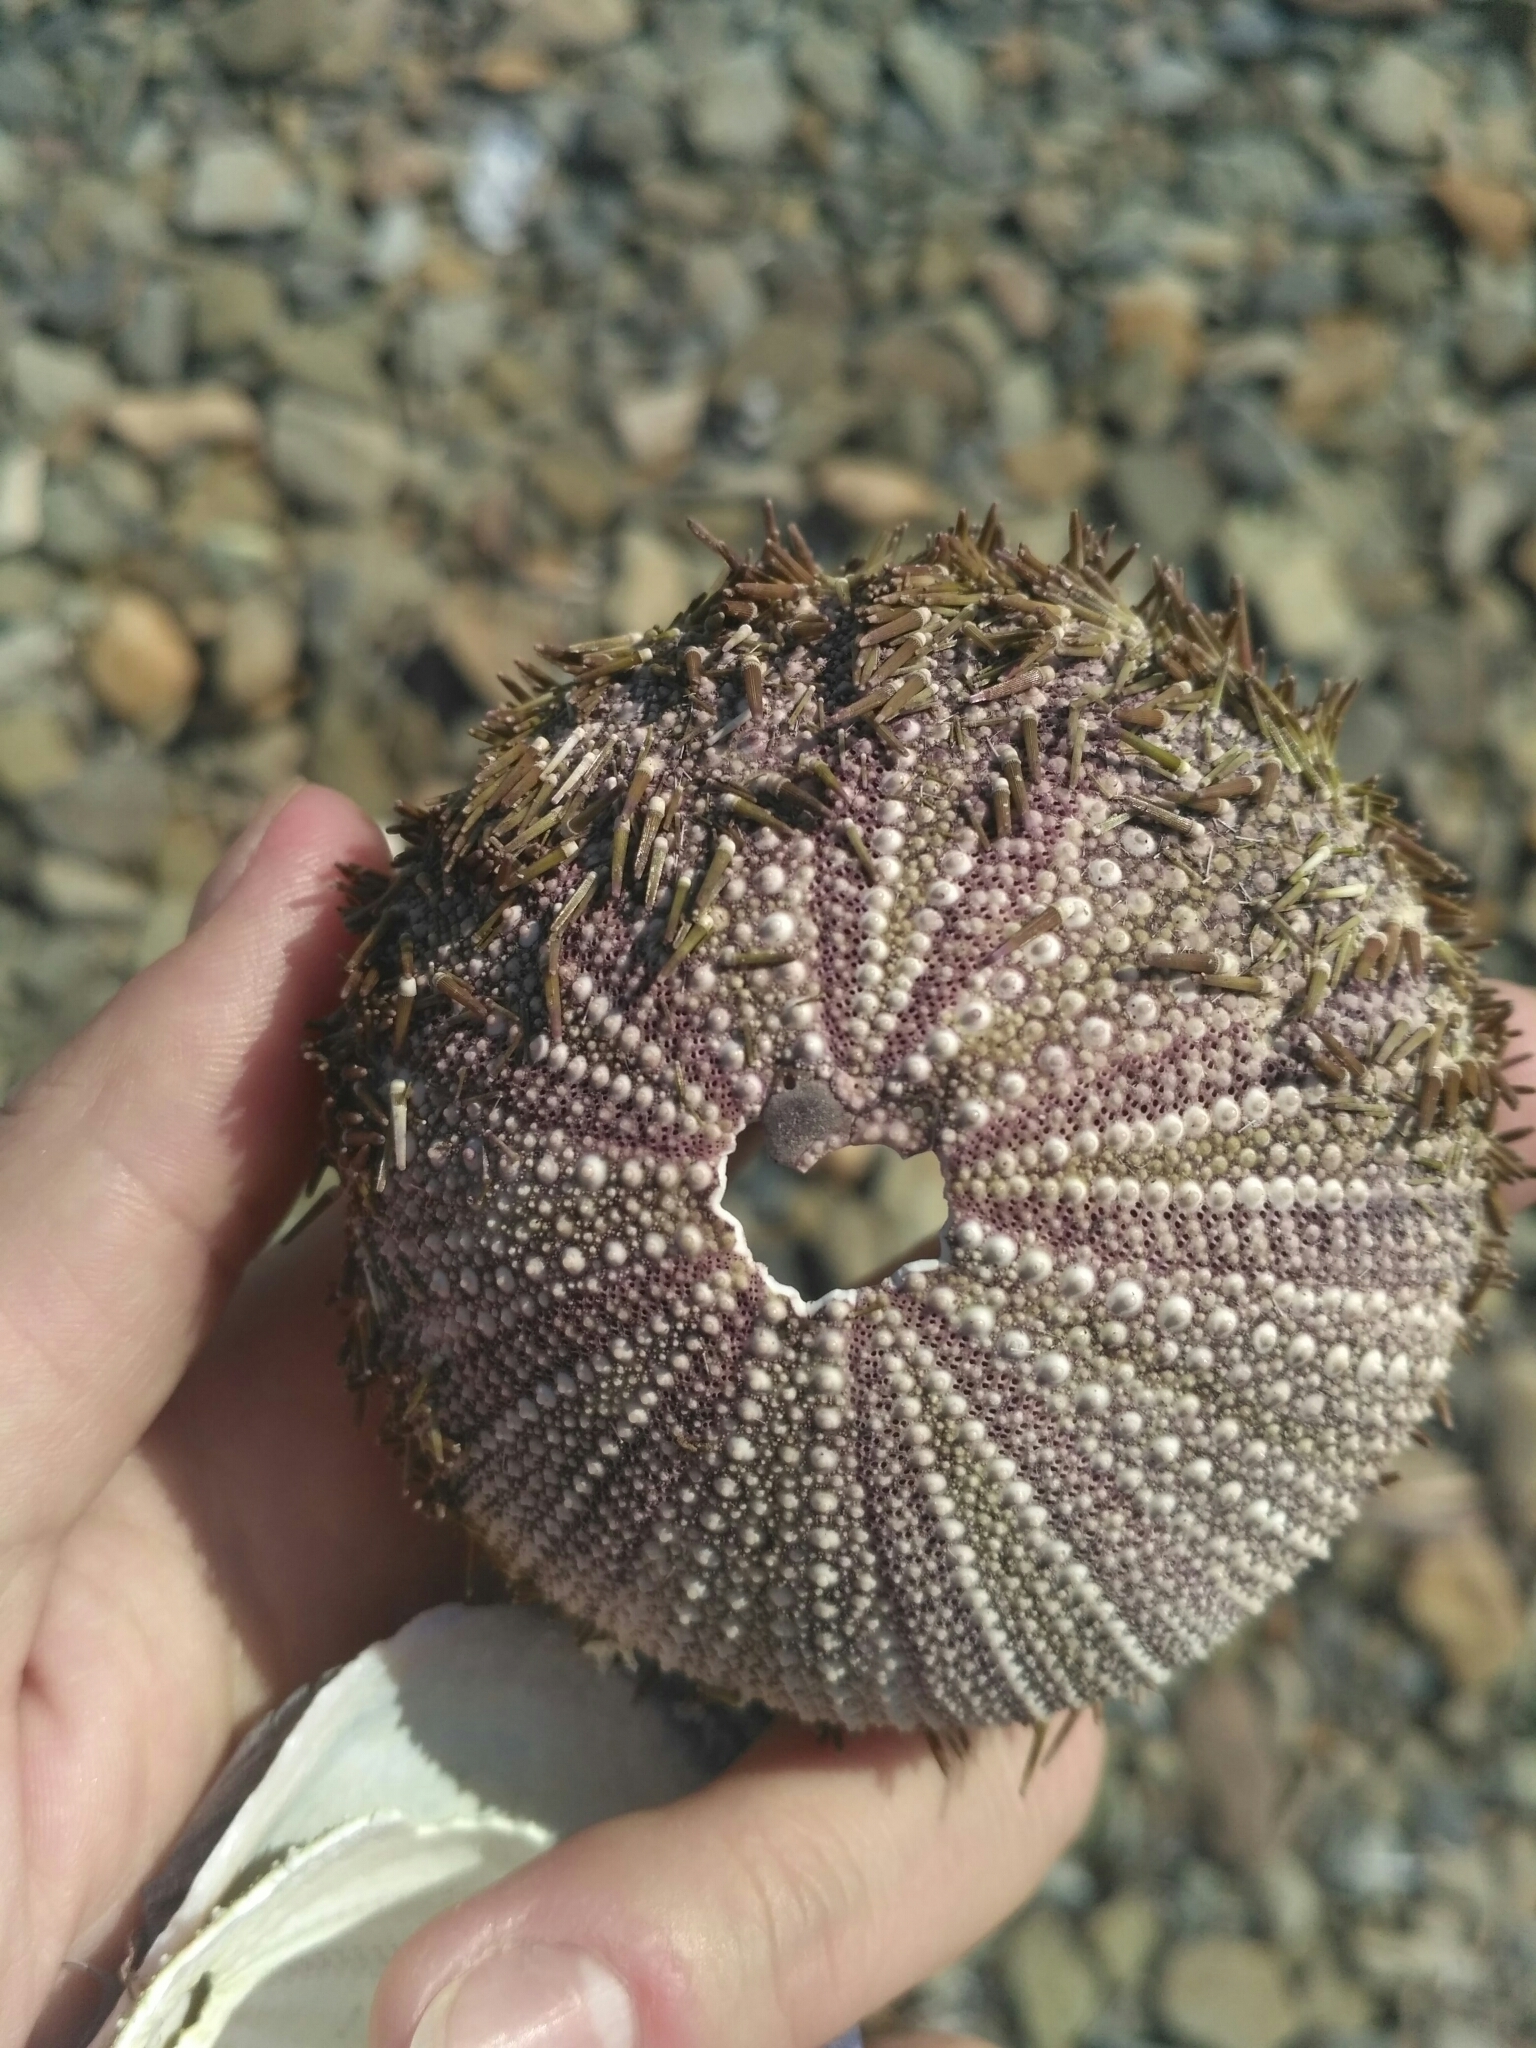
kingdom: Animalia
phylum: Echinodermata
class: Echinoidea
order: Camarodonta
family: Strongylocentrotidae
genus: Strongylocentrotus
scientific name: Strongylocentrotus intermedius
